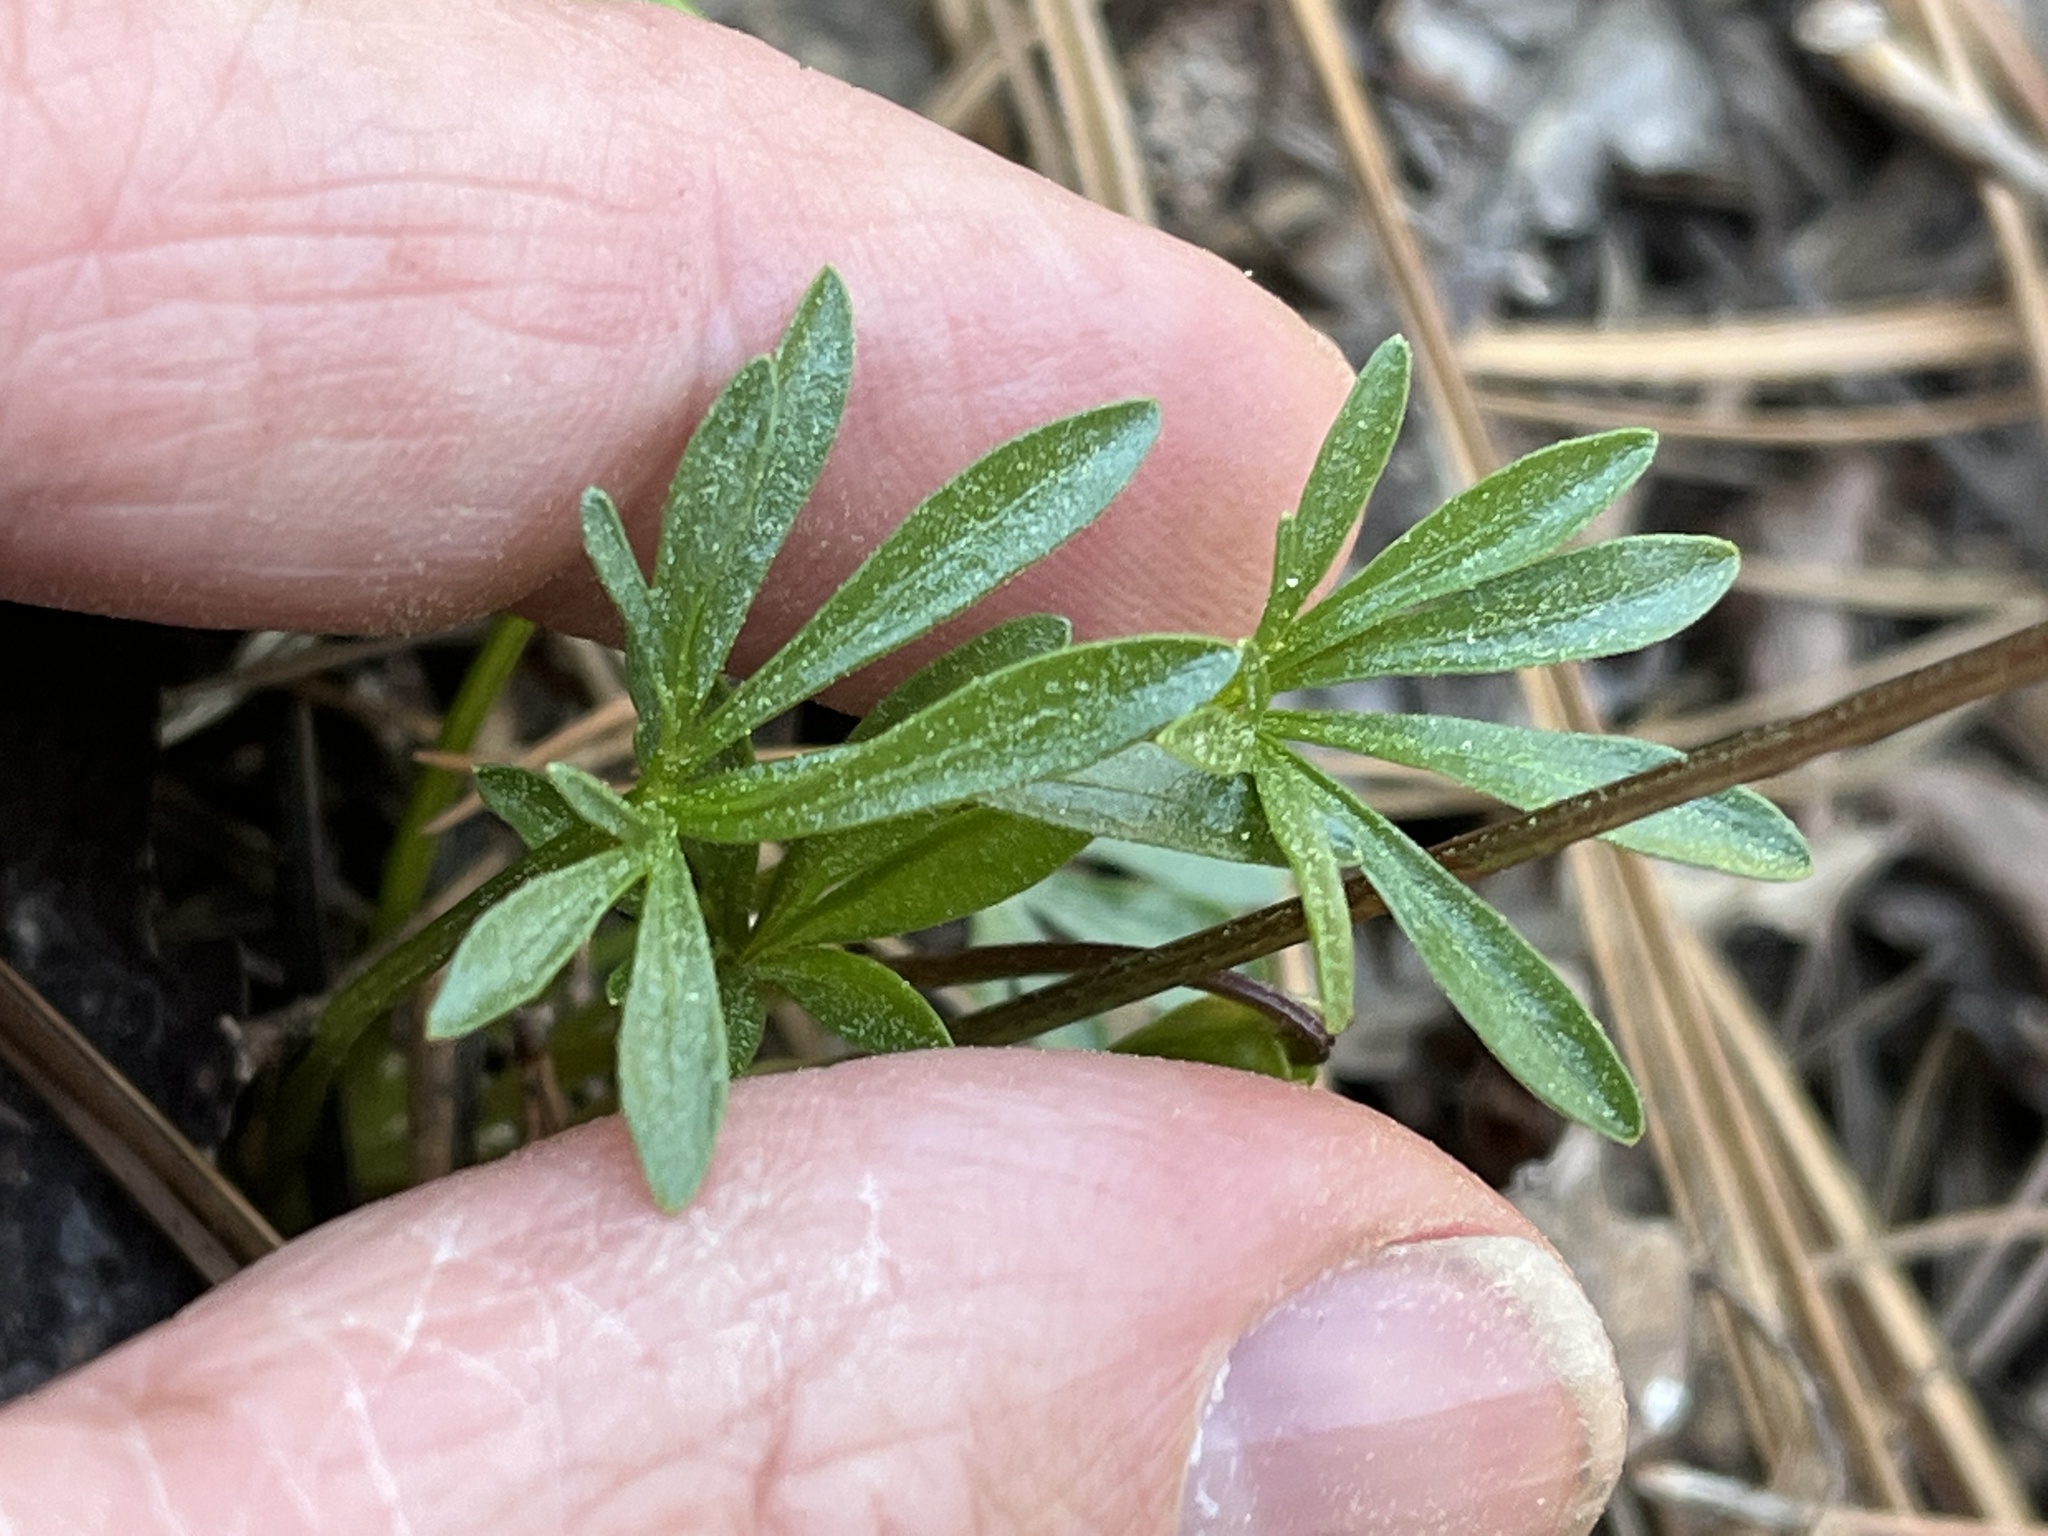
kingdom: Plantae
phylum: Tracheophyta
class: Magnoliopsida
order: Malpighiales
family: Violaceae
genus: Viola
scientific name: Viola pedata
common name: Pansy violet
